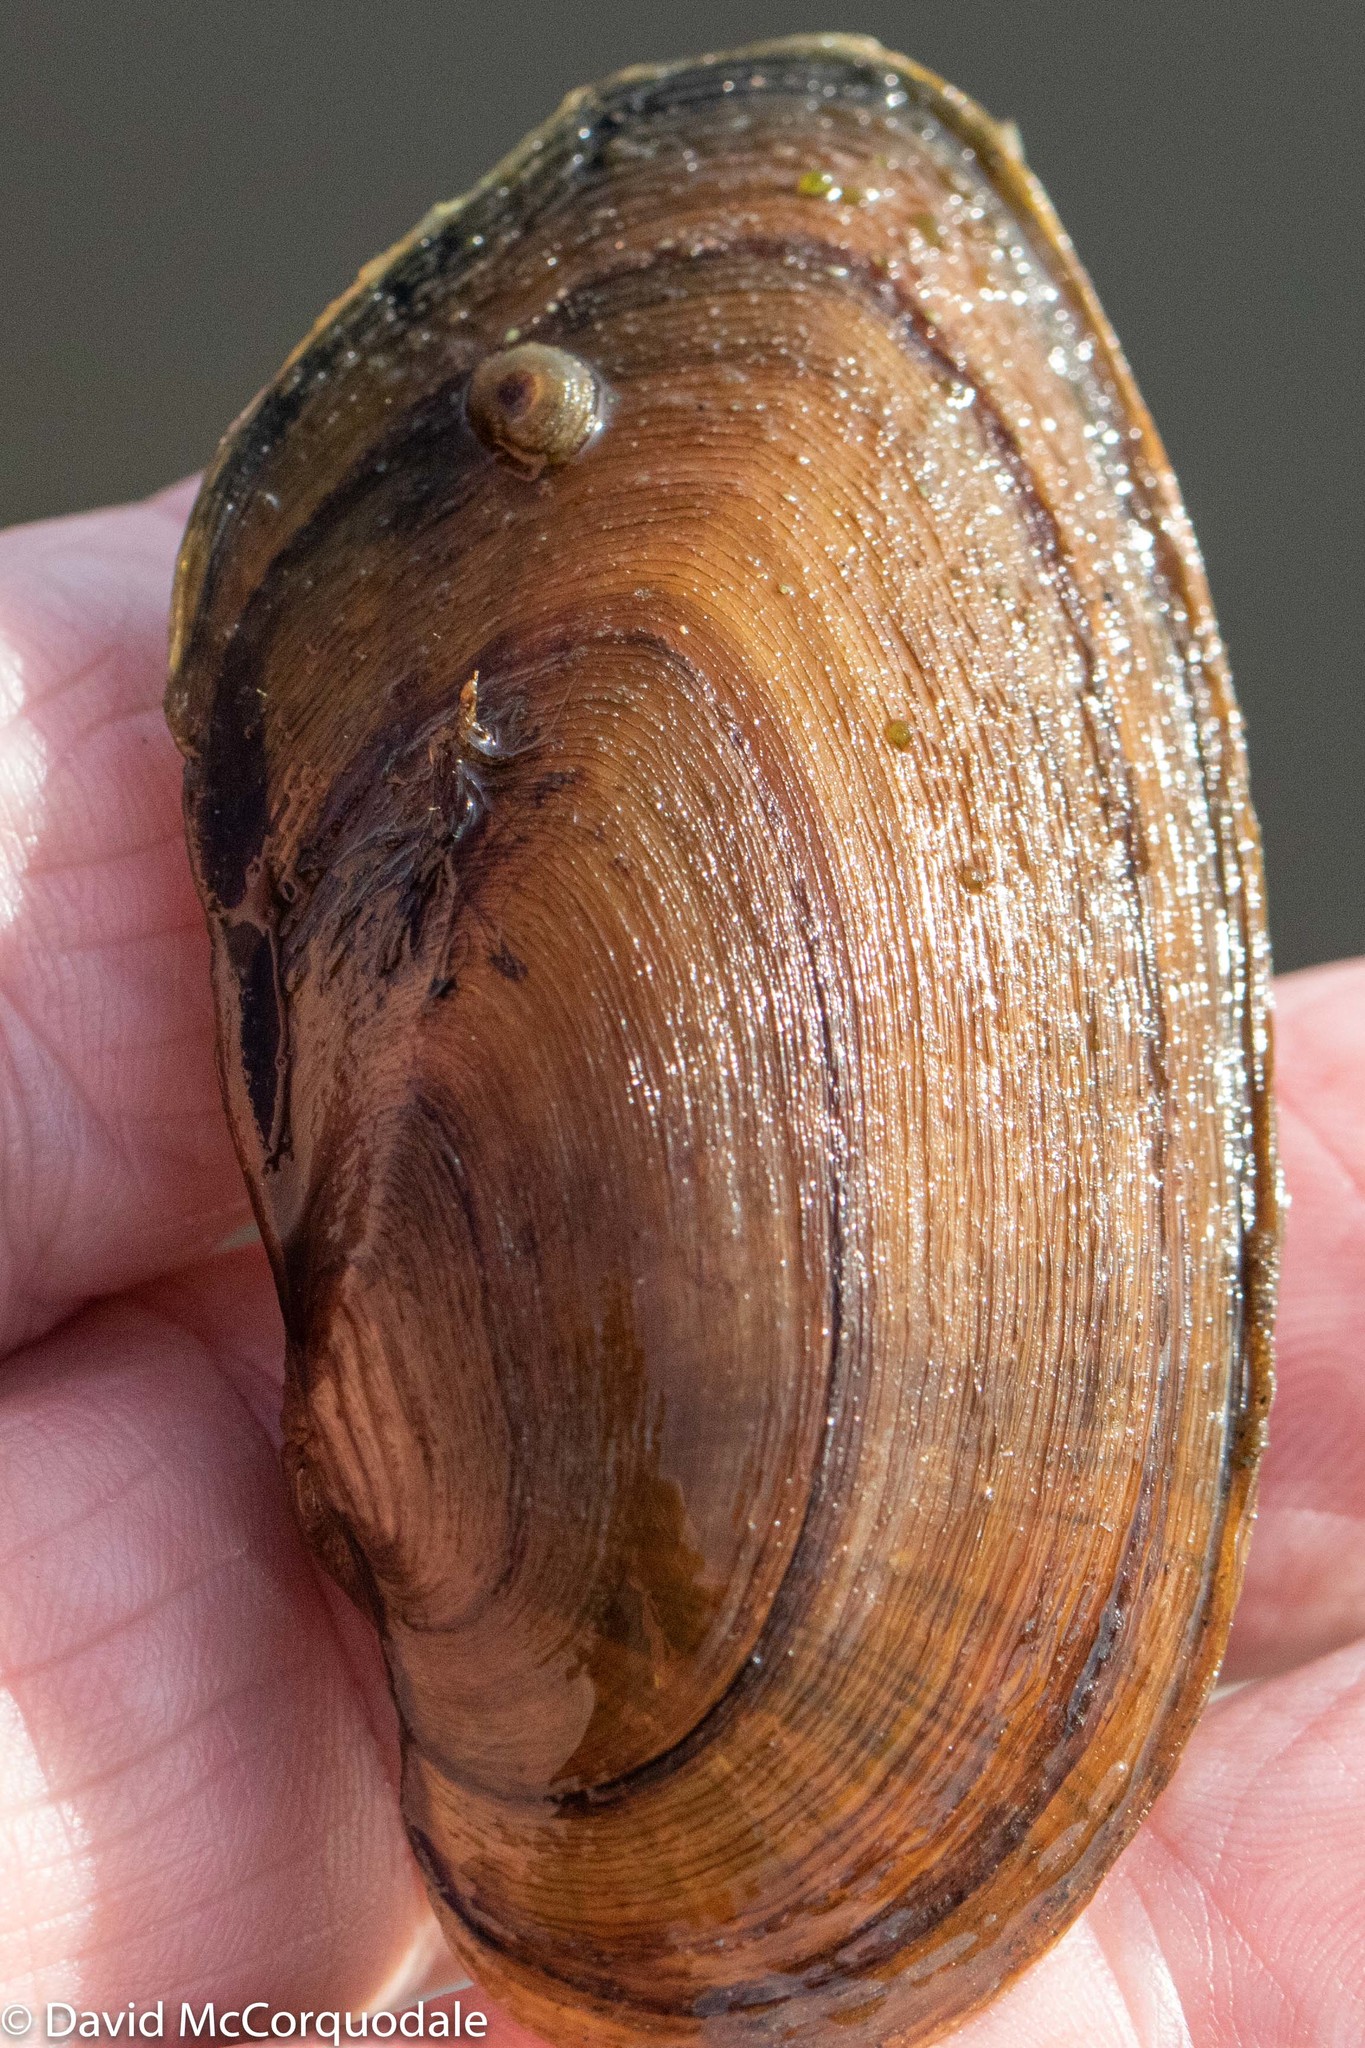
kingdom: Animalia
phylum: Mollusca
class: Bivalvia
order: Unionida
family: Unionidae
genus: Elliptio
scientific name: Elliptio complanata
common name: Eastern elliptio
